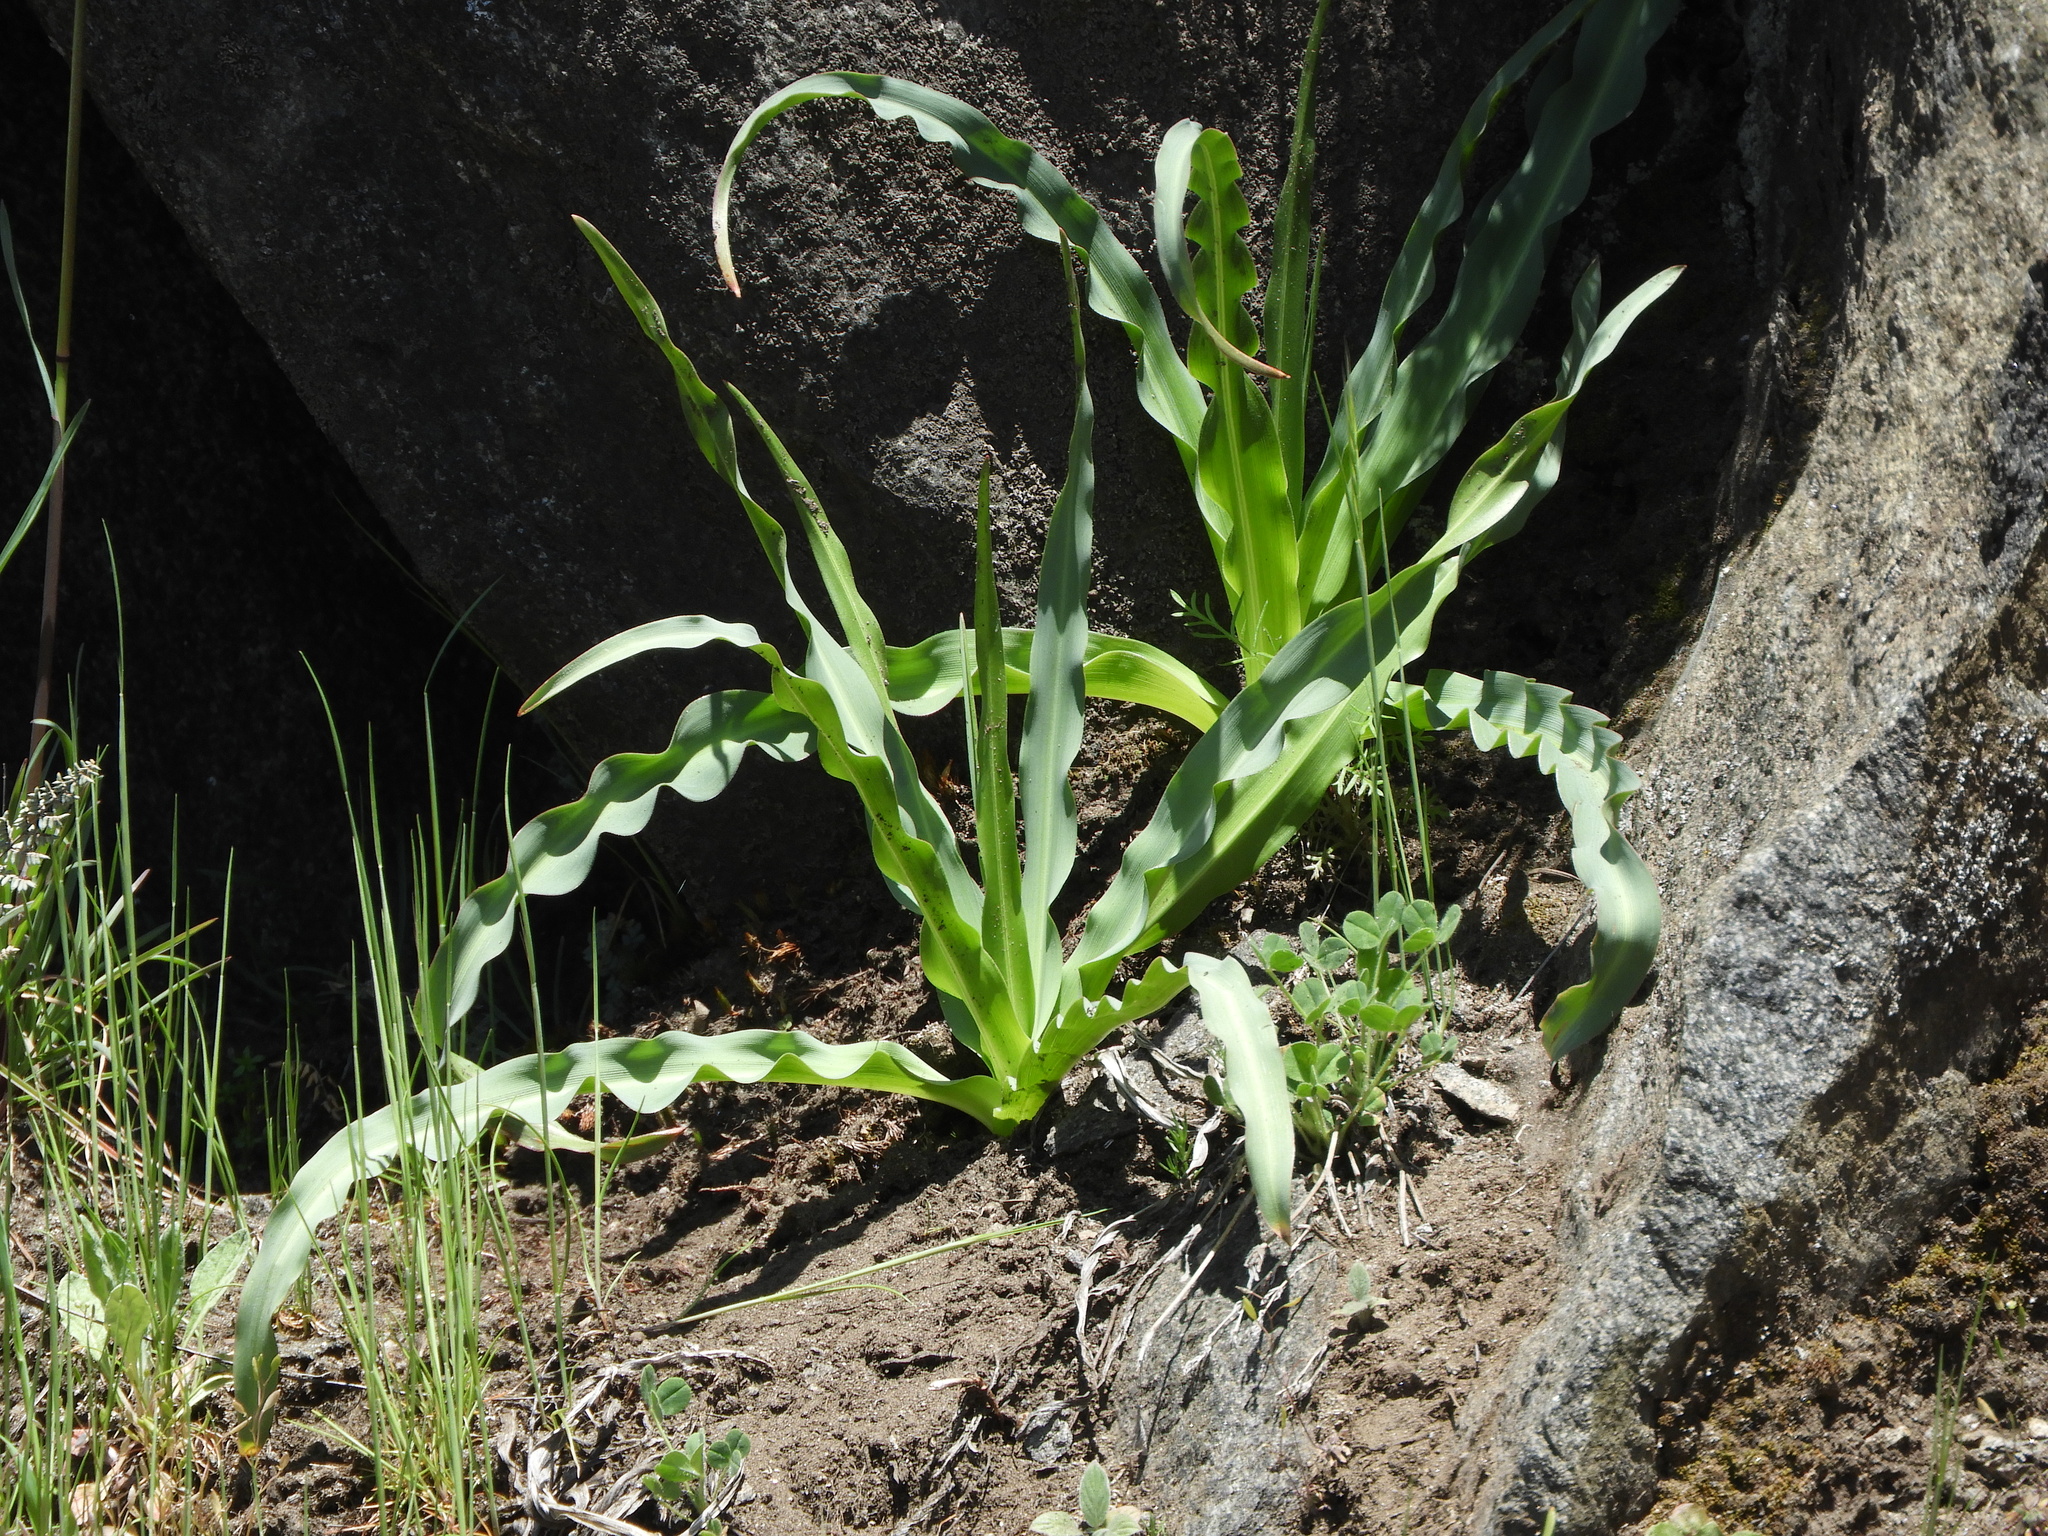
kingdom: Plantae
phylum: Tracheophyta
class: Liliopsida
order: Asparagales
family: Asparagaceae
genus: Chlorogalum
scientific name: Chlorogalum pomeridianum
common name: Amole
